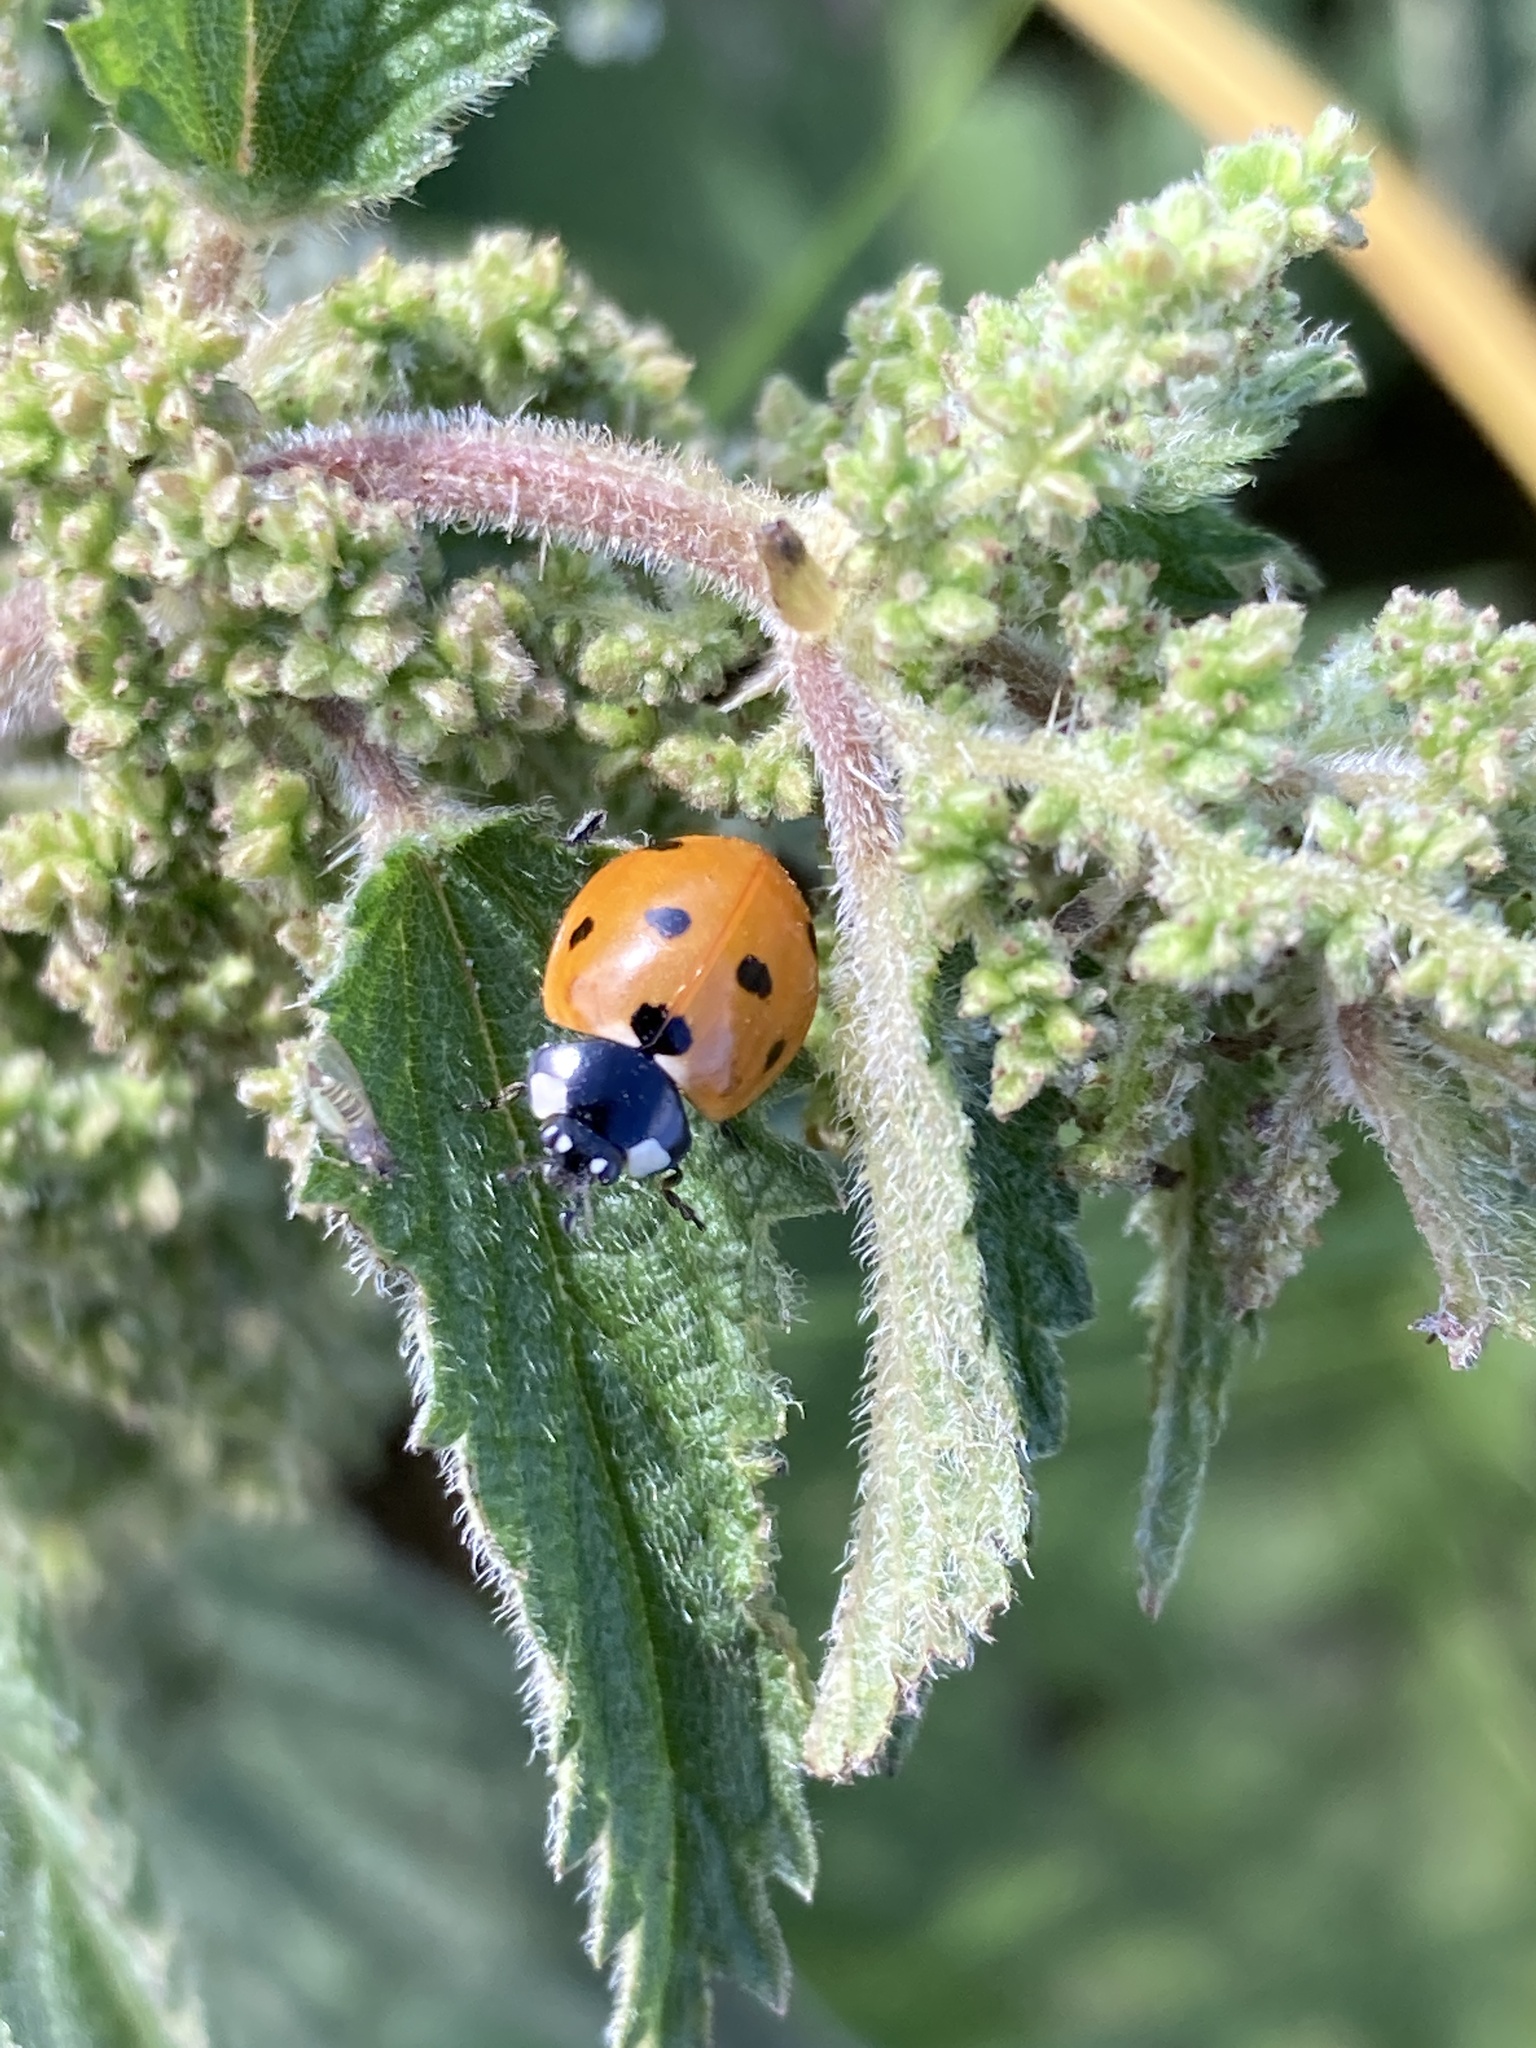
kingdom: Animalia
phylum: Arthropoda
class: Insecta
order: Coleoptera
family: Coccinellidae
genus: Coccinella
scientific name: Coccinella septempunctata
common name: Sevenspotted lady beetle
